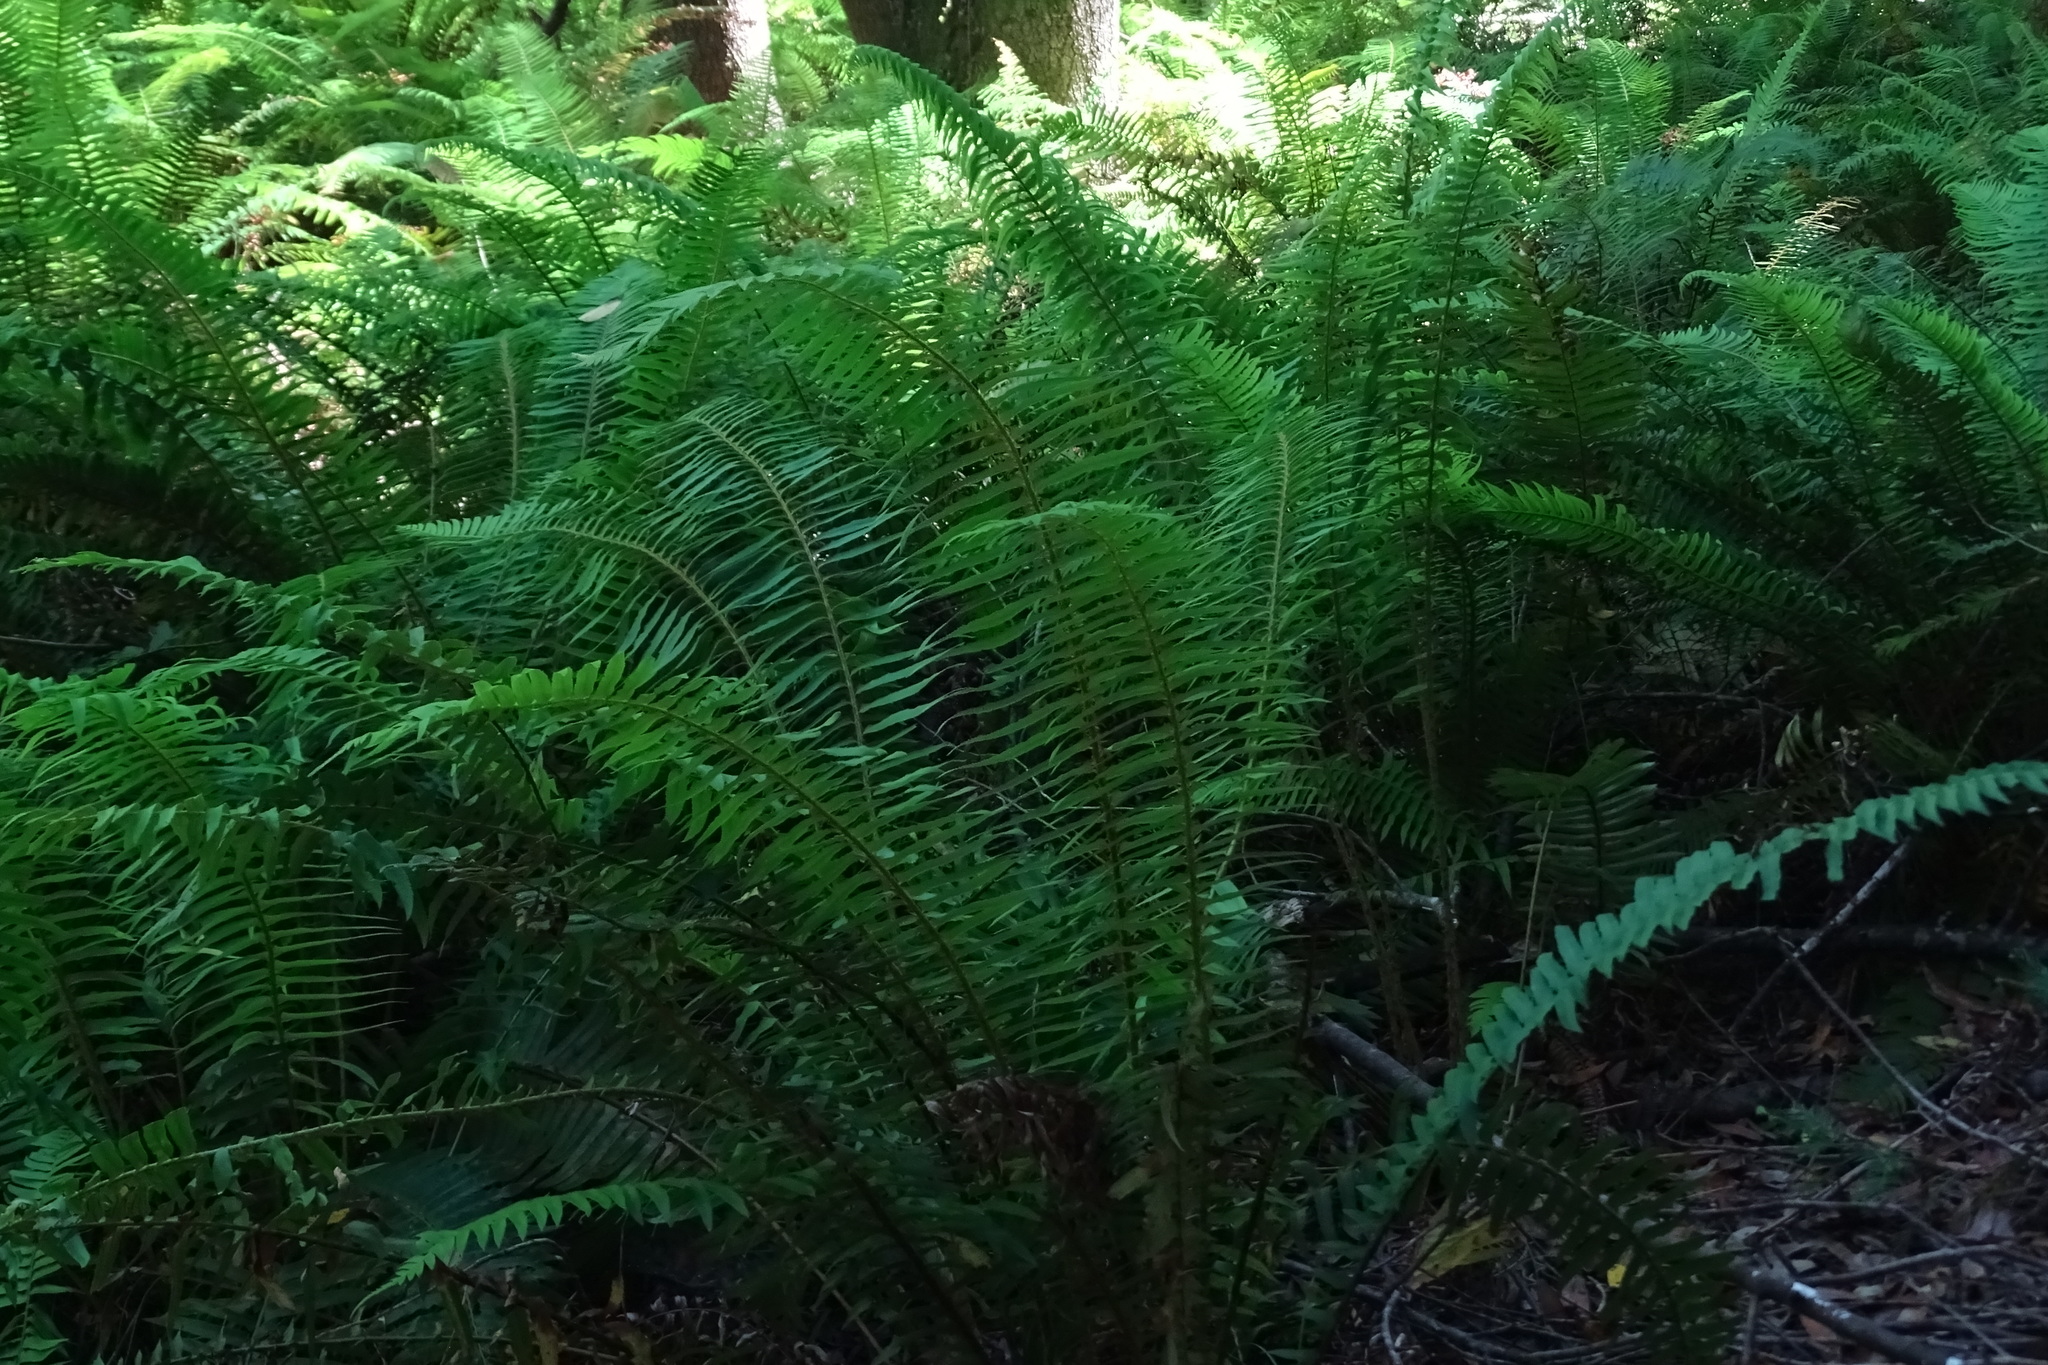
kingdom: Plantae
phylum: Tracheophyta
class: Polypodiopsida
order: Polypodiales
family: Dryopteridaceae
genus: Polystichum
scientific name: Polystichum munitum
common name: Western sword-fern
